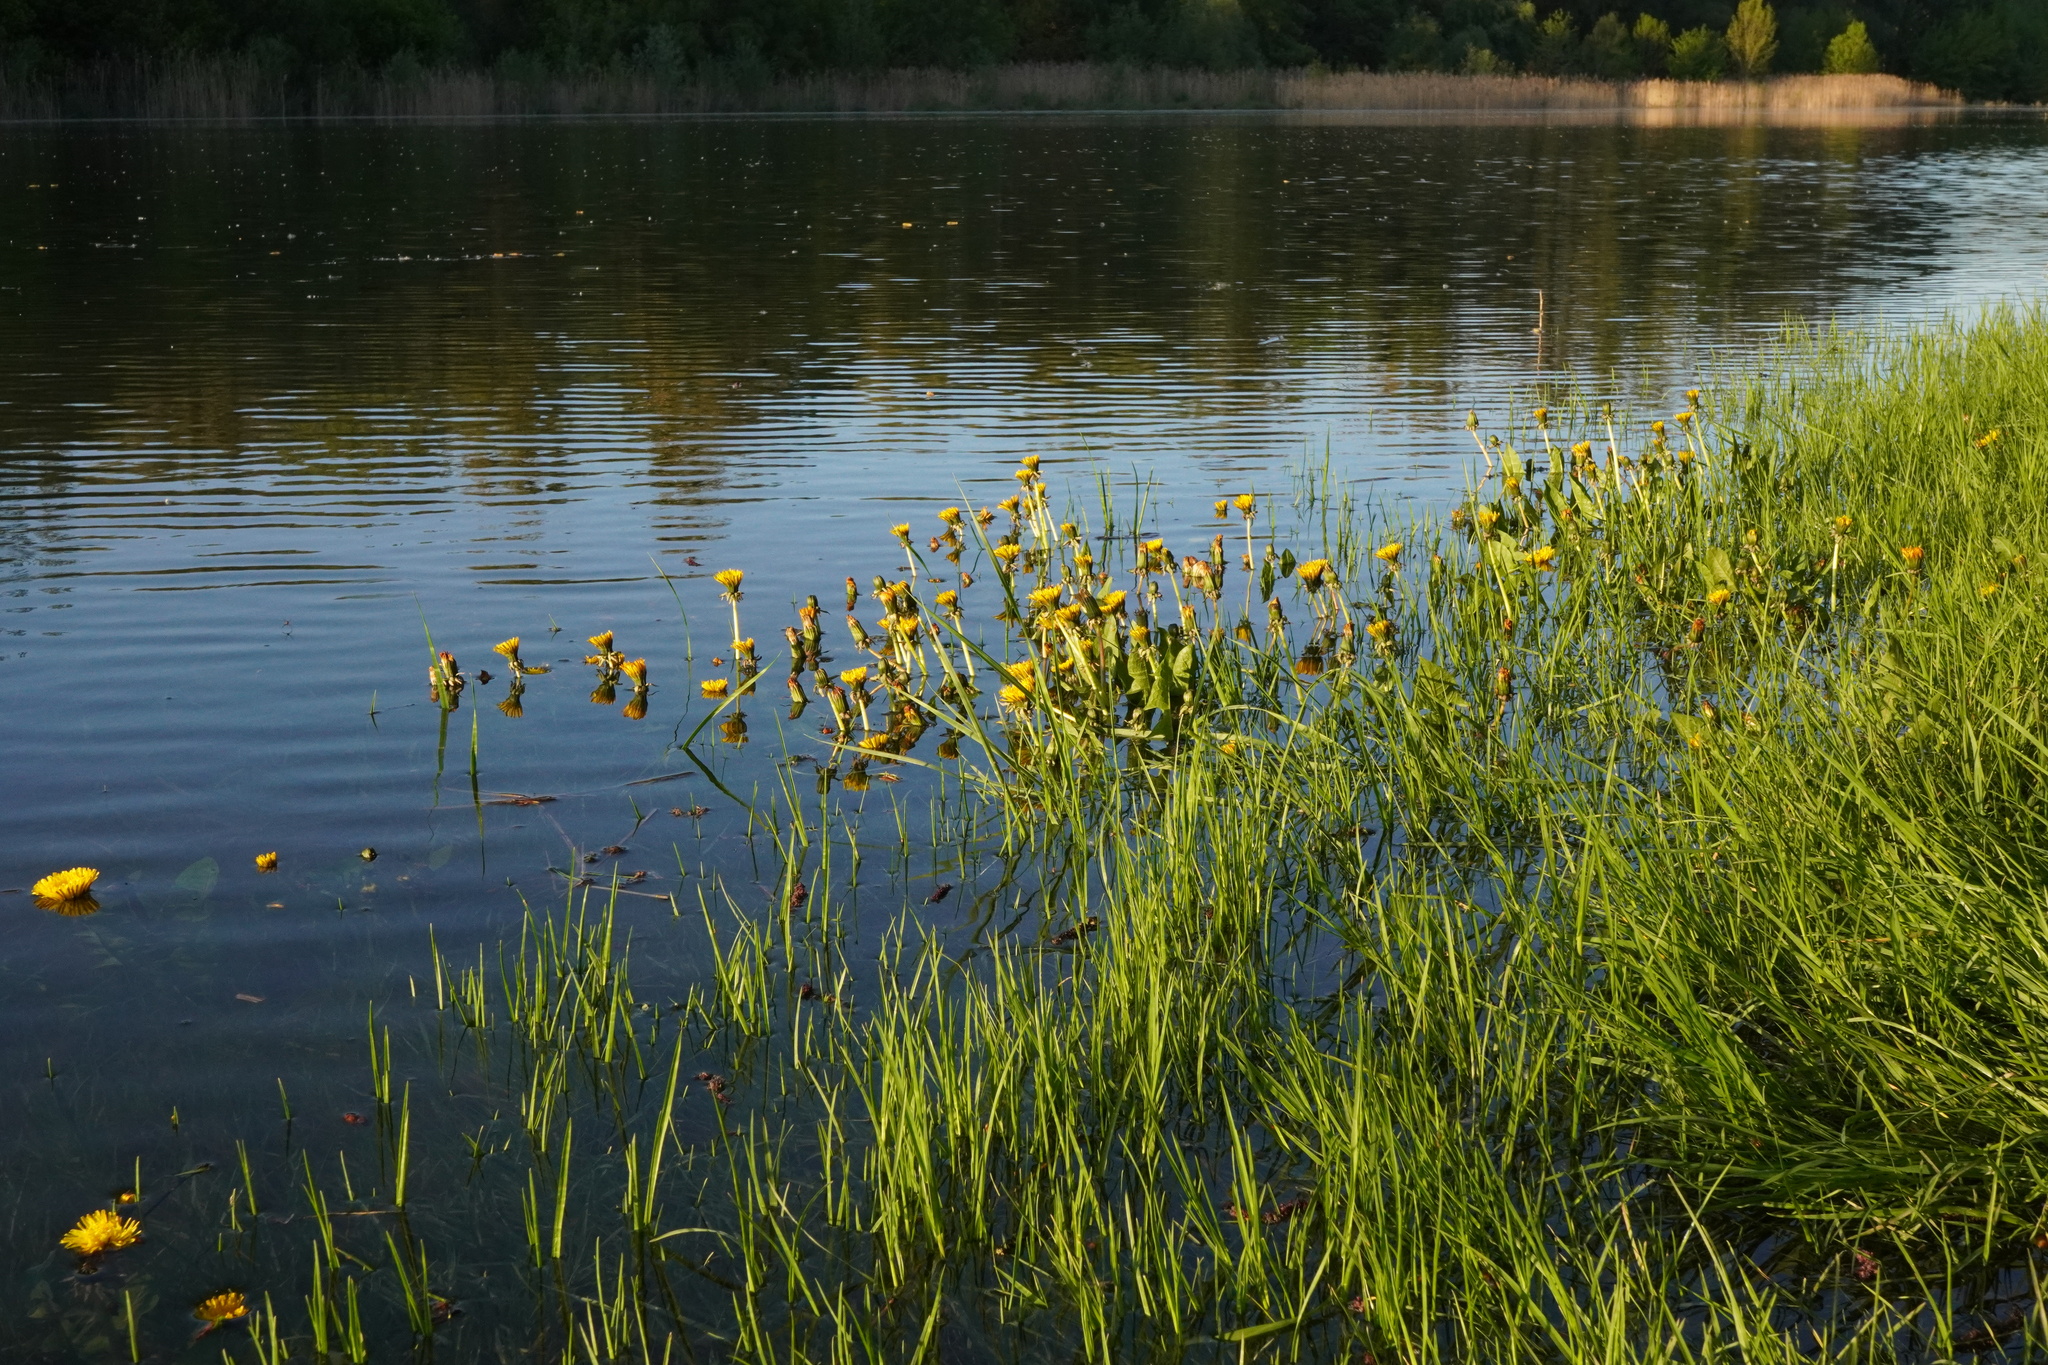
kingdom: Plantae
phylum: Tracheophyta
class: Magnoliopsida
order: Asterales
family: Asteraceae
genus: Taraxacum
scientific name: Taraxacum
